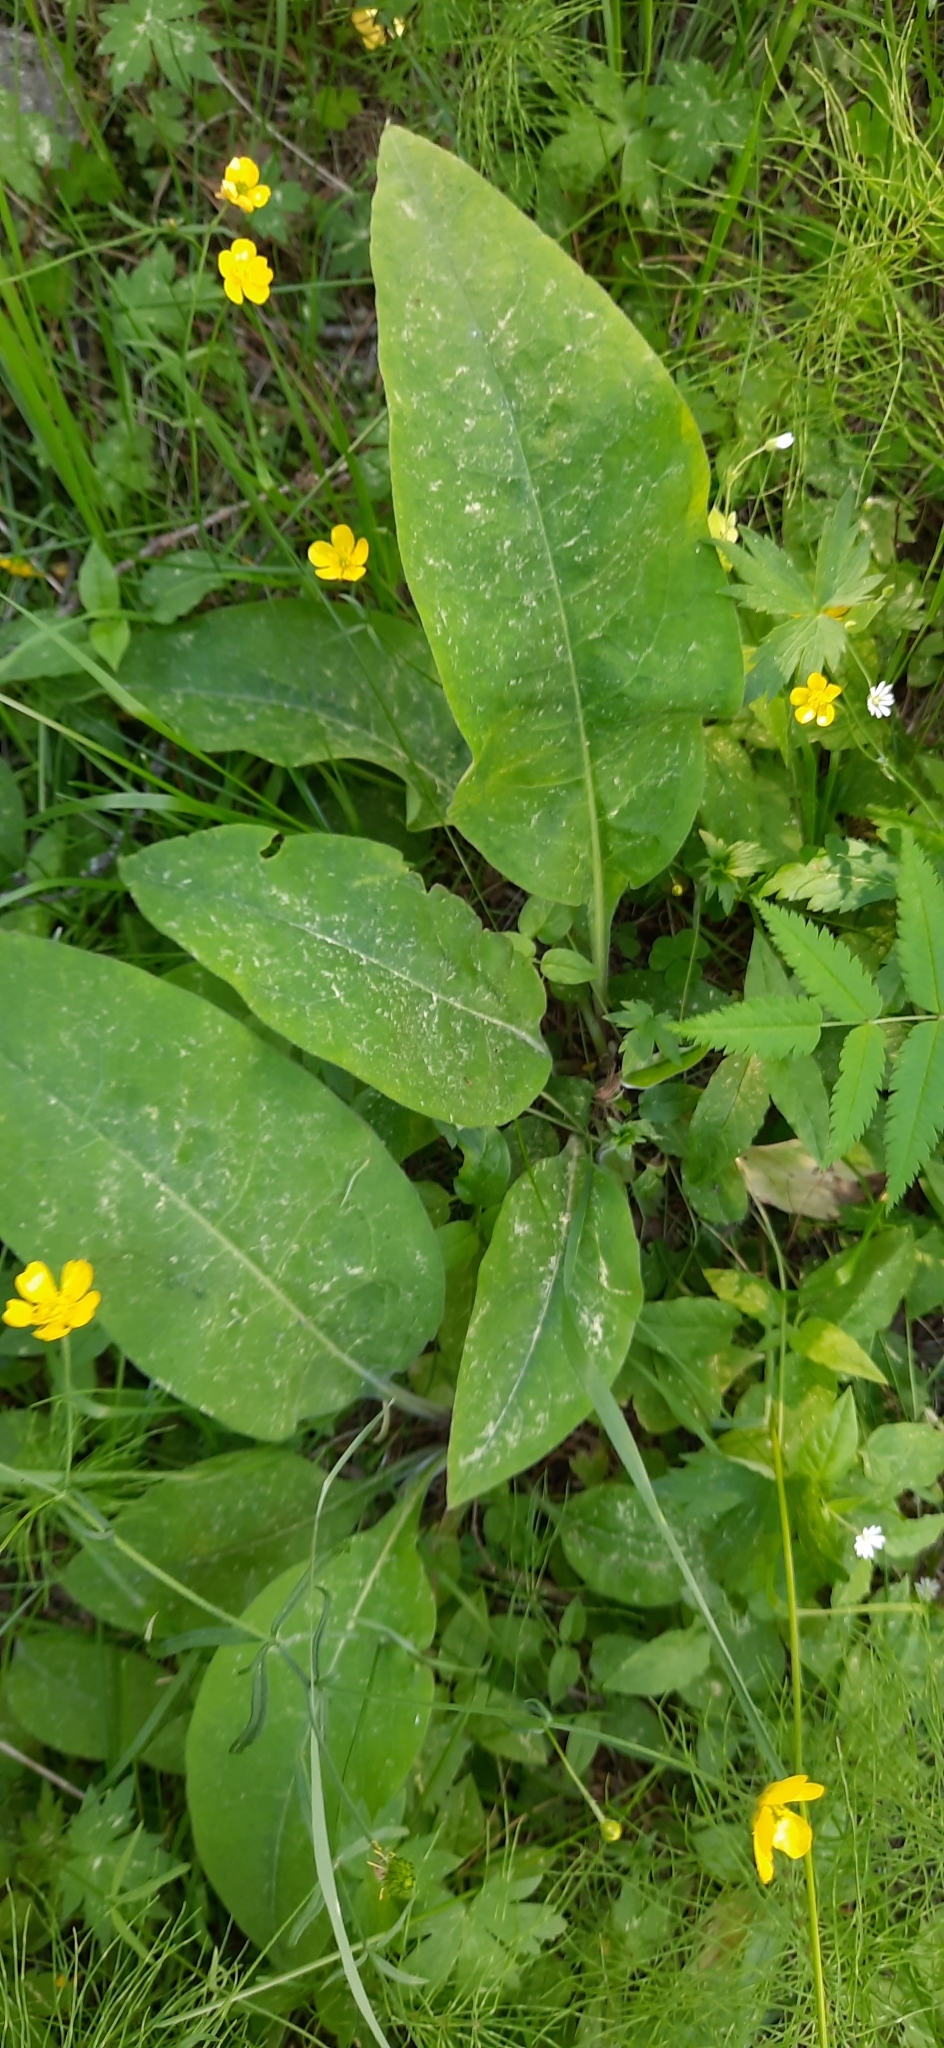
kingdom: Plantae
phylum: Tracheophyta
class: Magnoliopsida
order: Boraginales
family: Boraginaceae
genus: Pulmonaria
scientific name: Pulmonaria mollis
